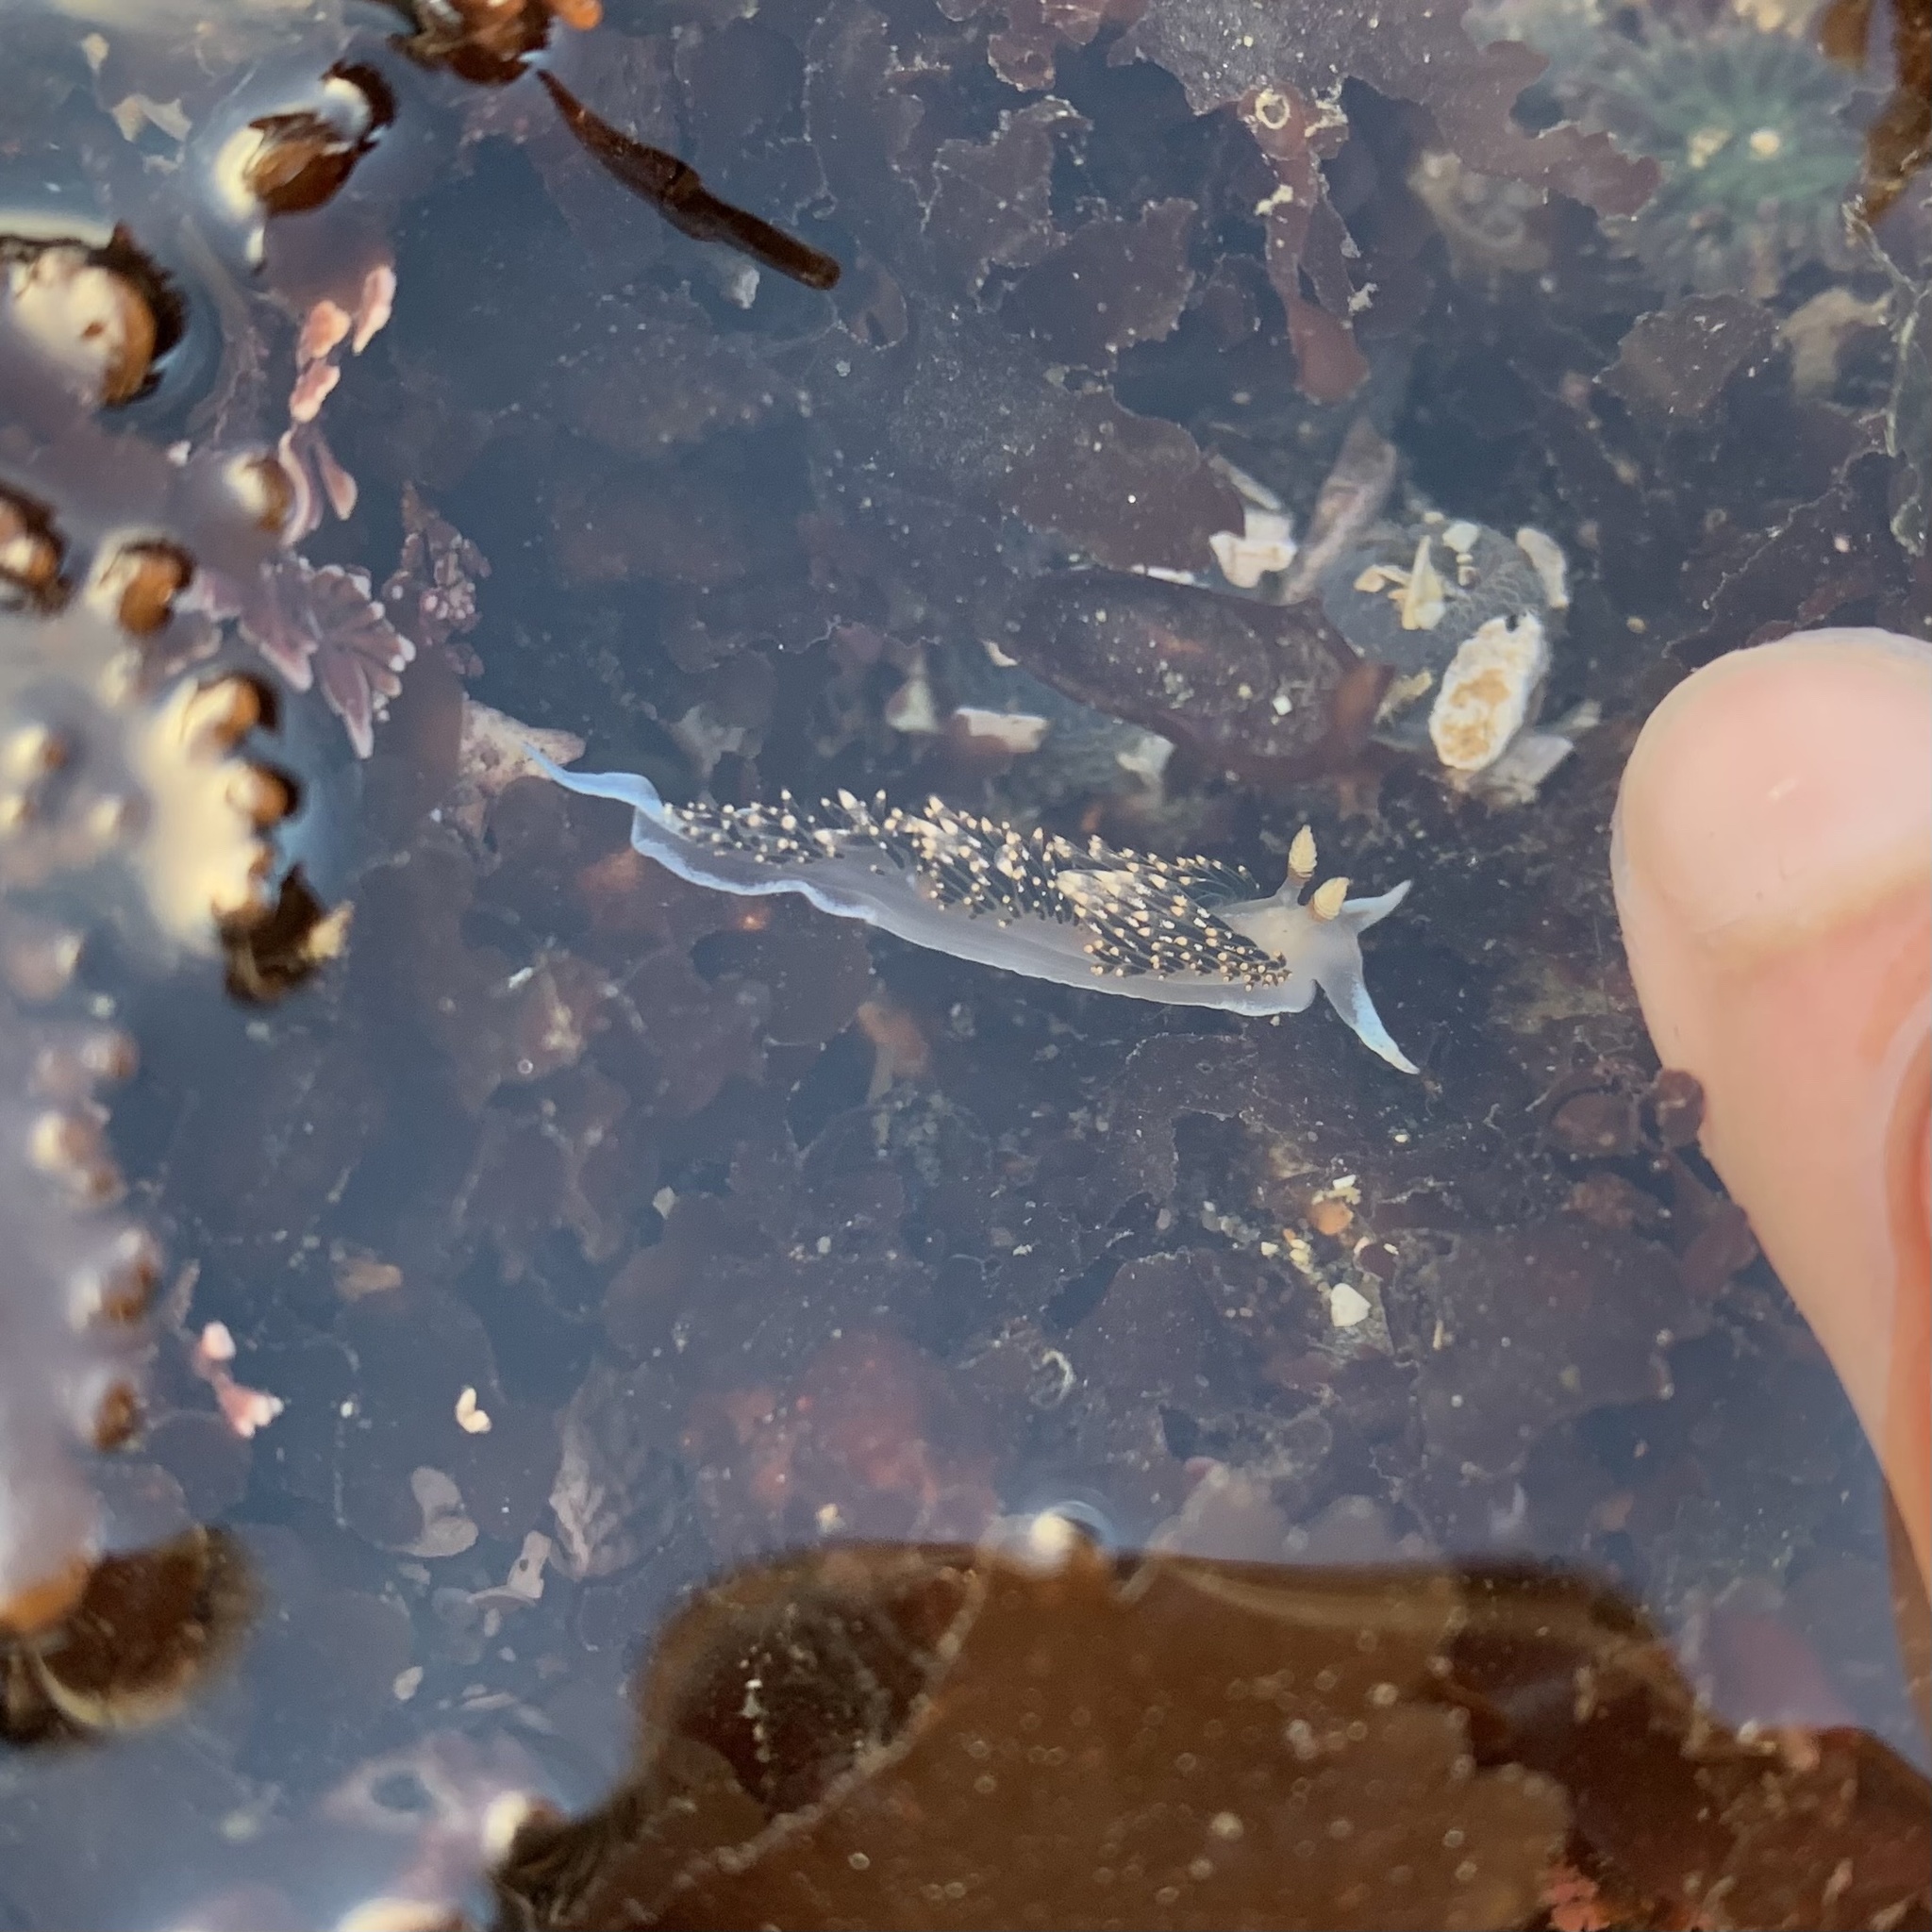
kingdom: Animalia
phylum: Mollusca
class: Gastropoda
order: Nudibranchia
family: Facelinidae
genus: Phidiana
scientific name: Phidiana hiltoni
